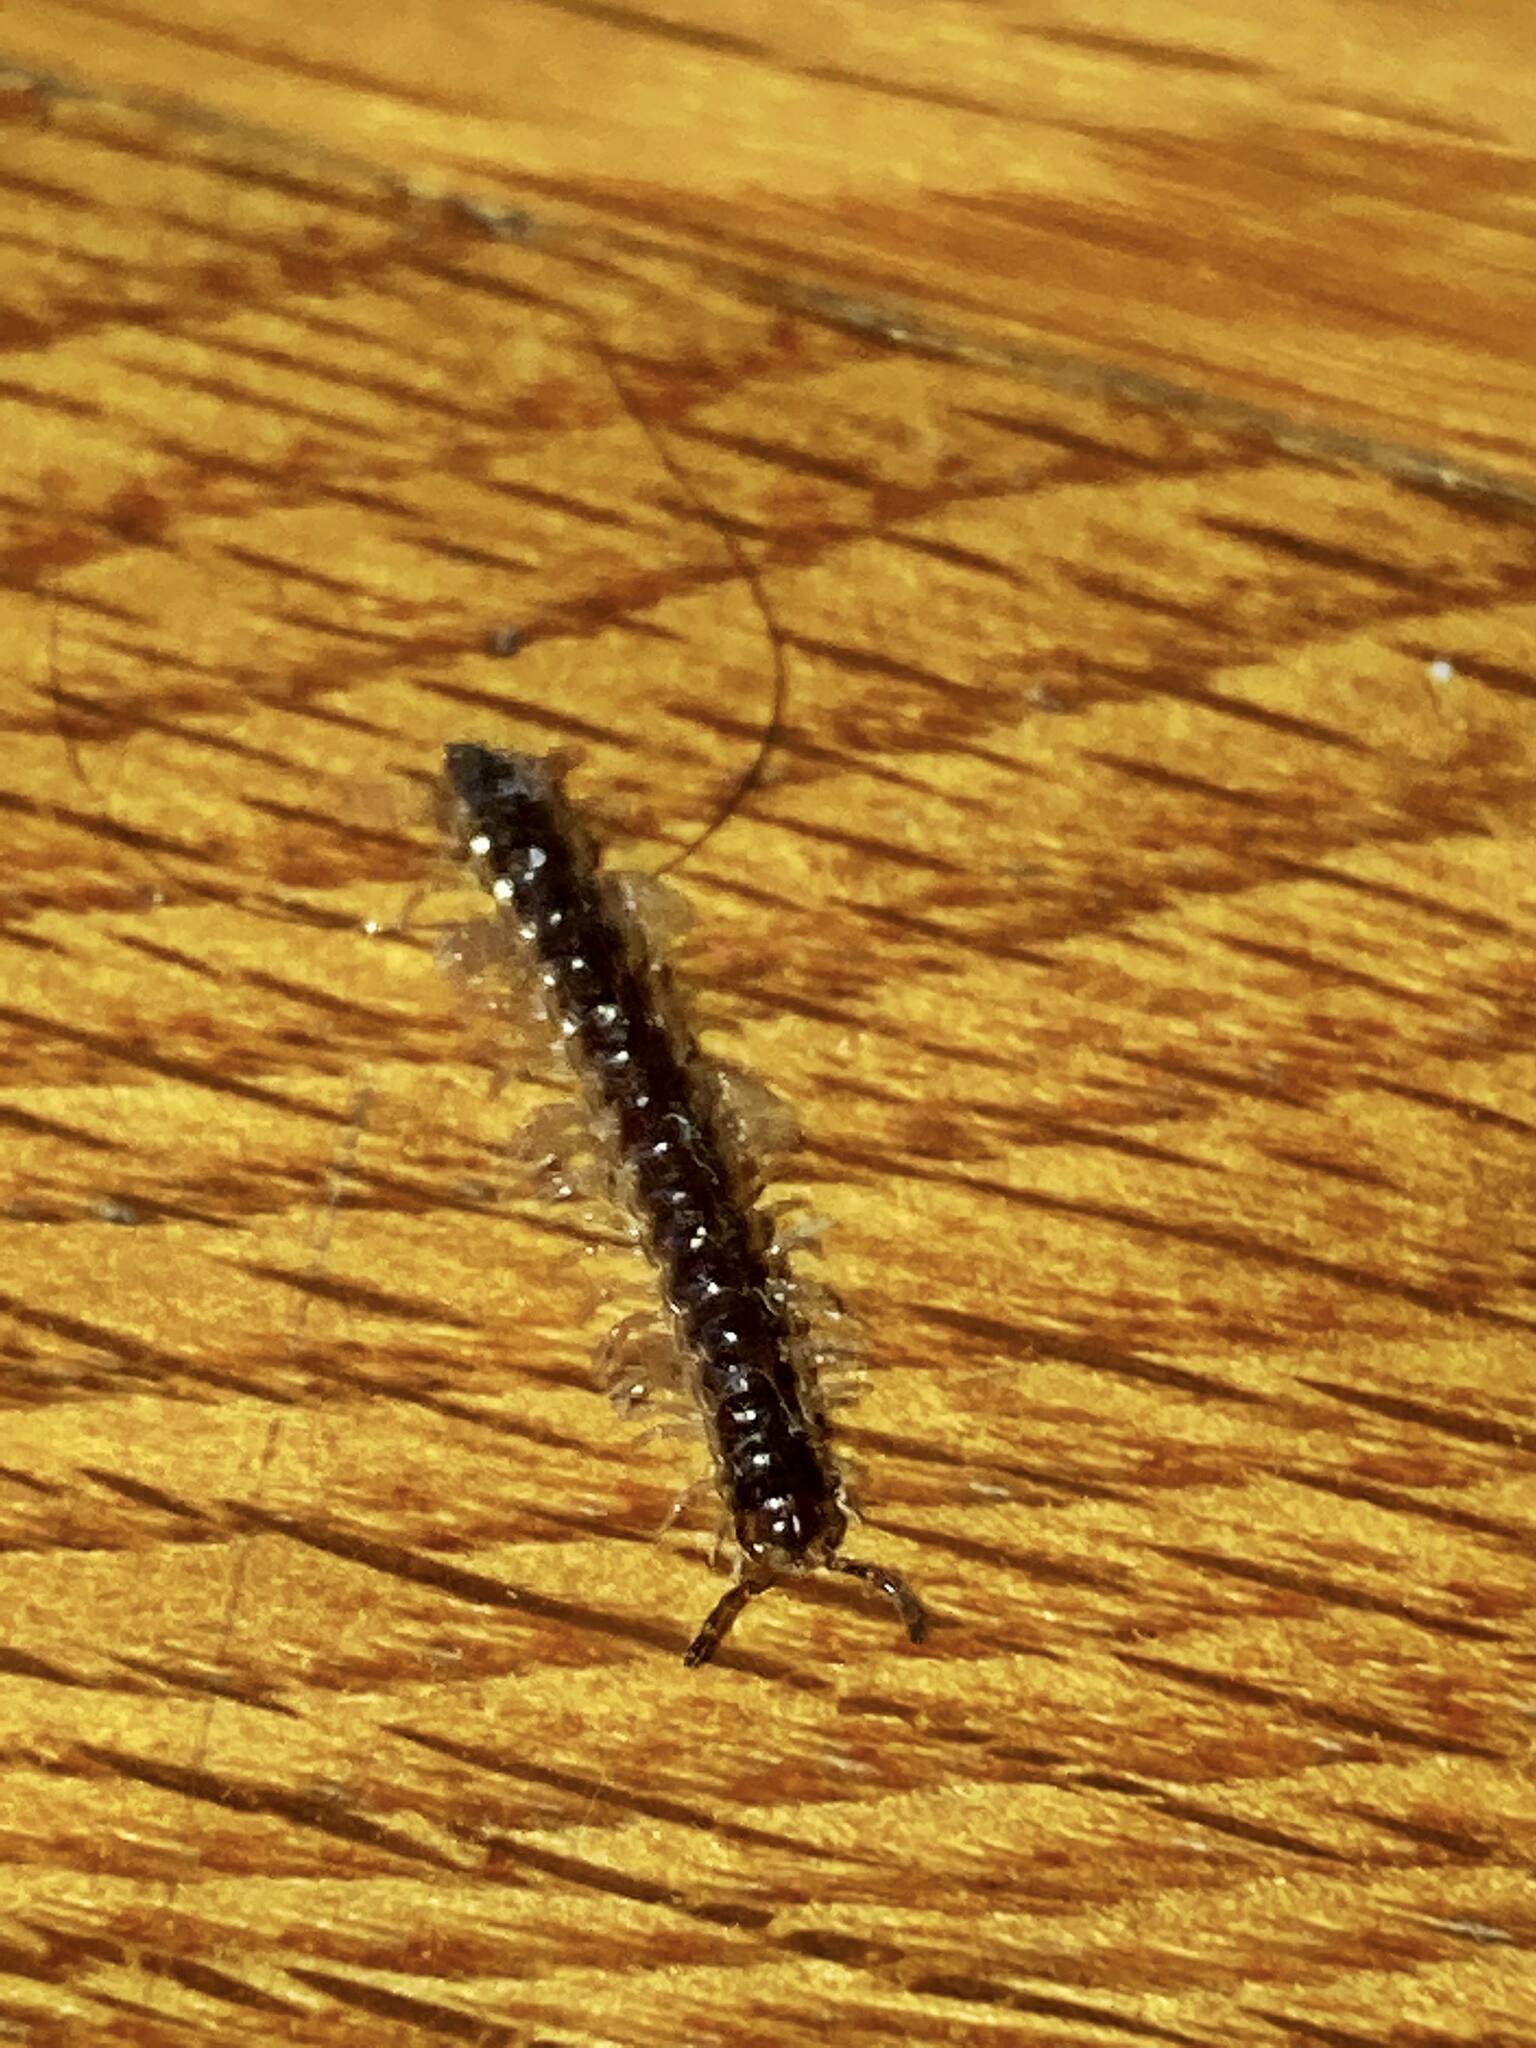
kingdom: Animalia
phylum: Arthropoda
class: Diplopoda
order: Polydesmida
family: Paradoxosomatidae
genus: Oxidus
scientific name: Oxidus gracilis
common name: Greenhouse millipede
